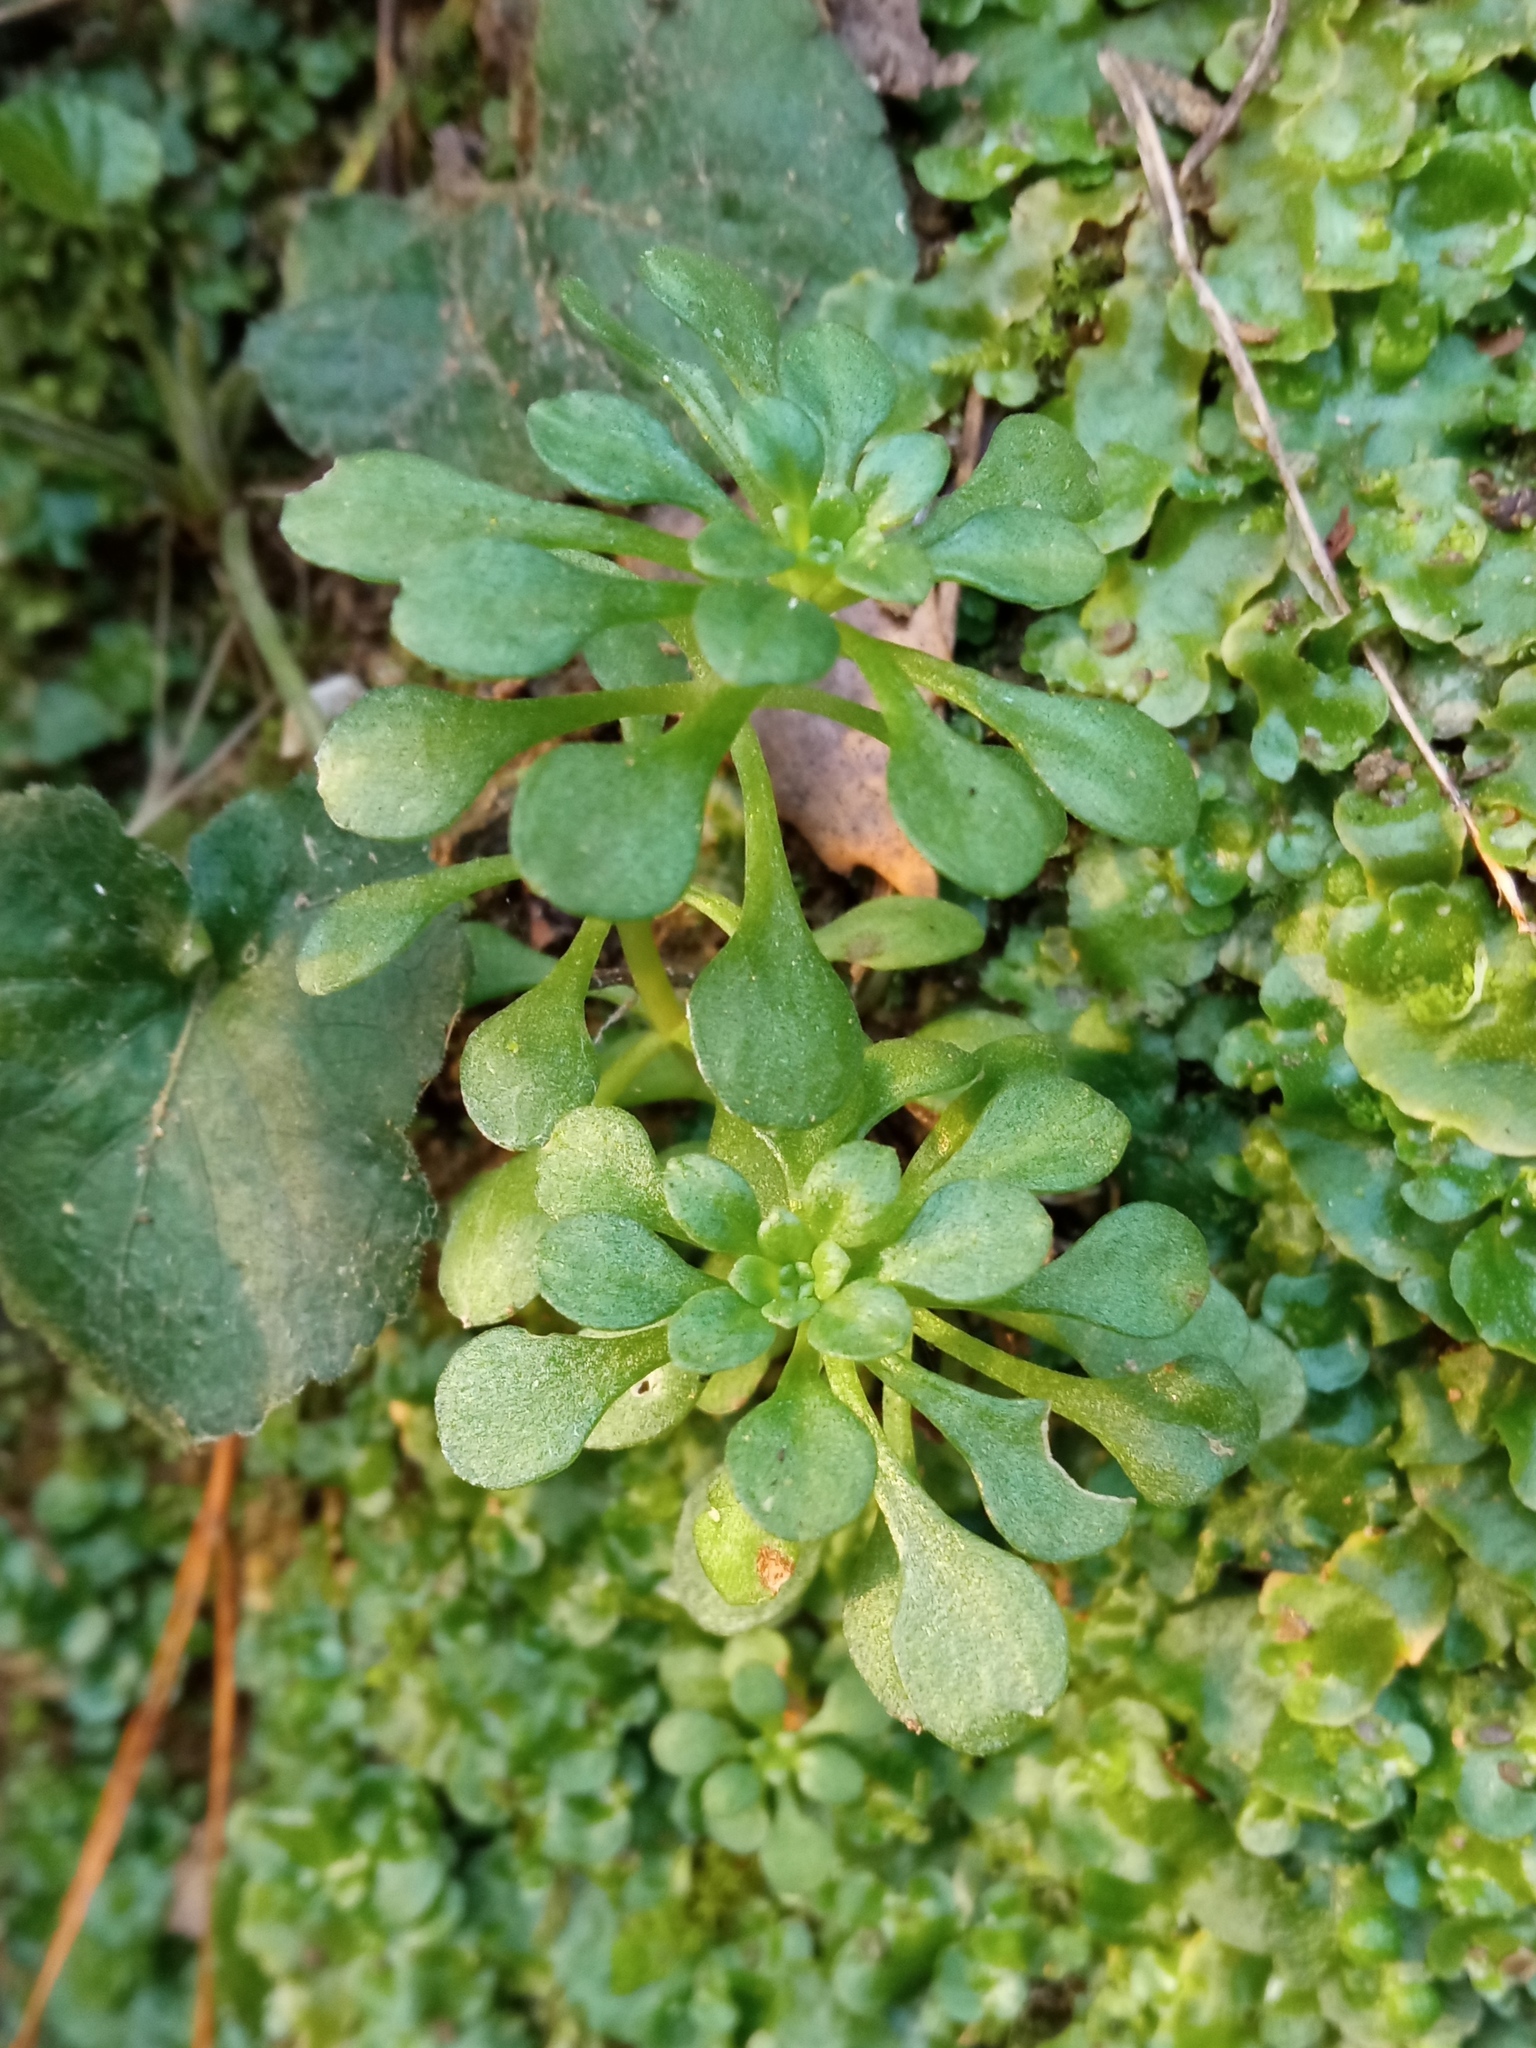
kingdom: Plantae
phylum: Tracheophyta
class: Magnoliopsida
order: Saxifragales
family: Crassulaceae
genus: Sedum
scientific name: Sedum cepaea
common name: Pink stonecrop
